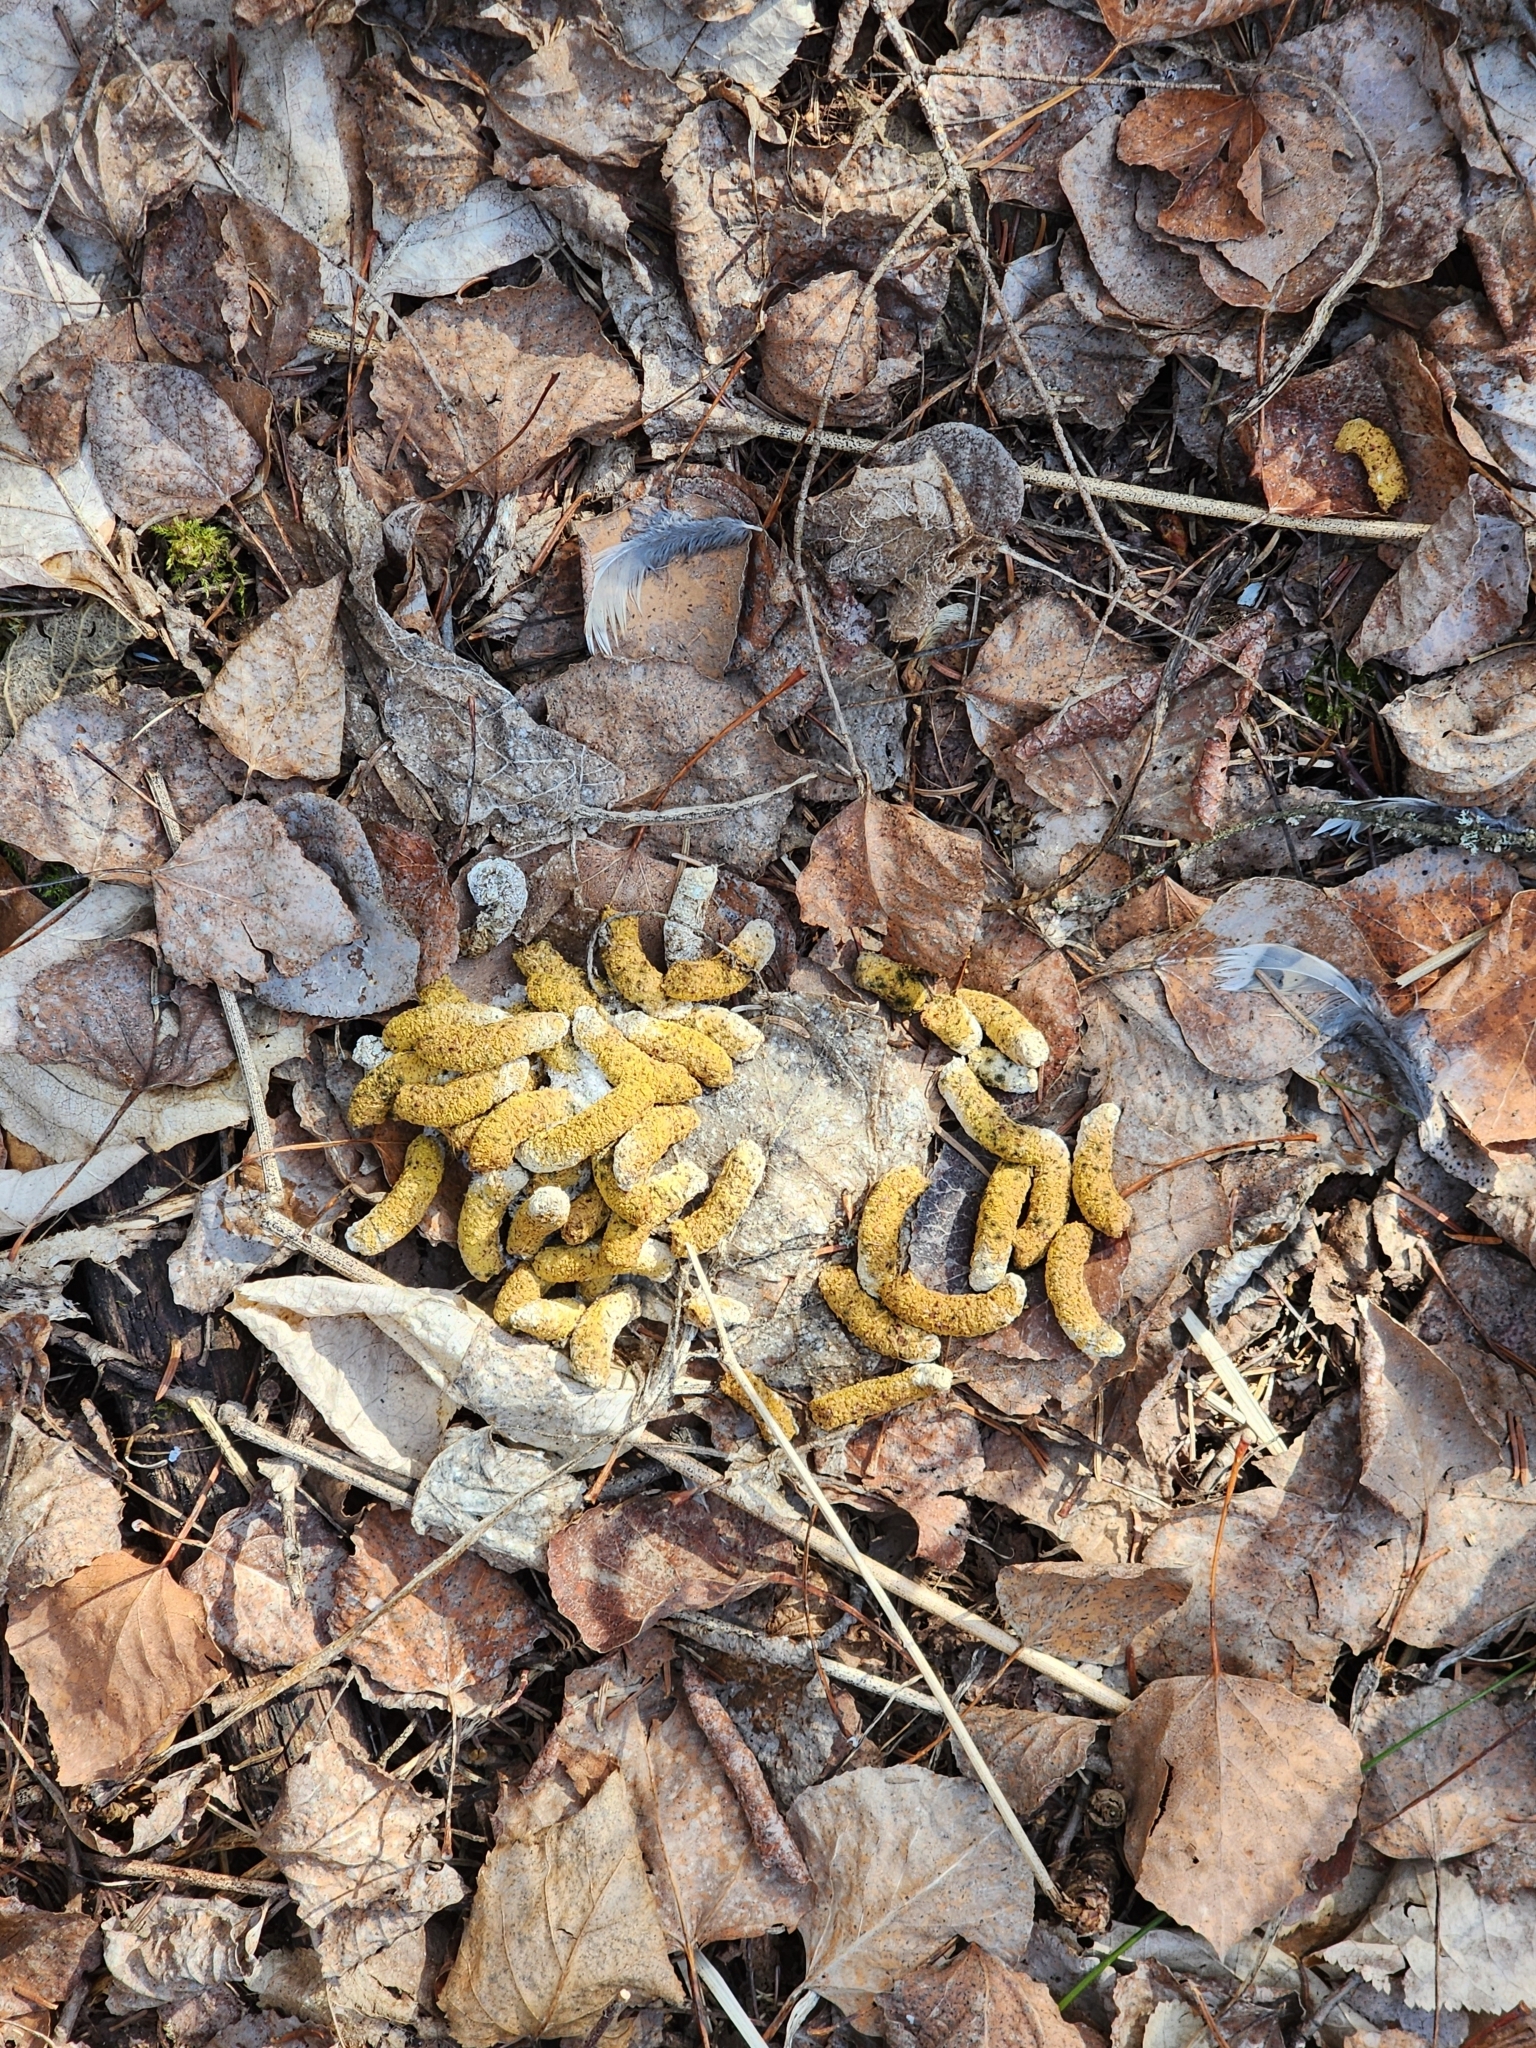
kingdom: Animalia
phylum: Chordata
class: Aves
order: Galliformes
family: Phasianidae
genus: Bonasa
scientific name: Bonasa umbellus
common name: Ruffed grouse
